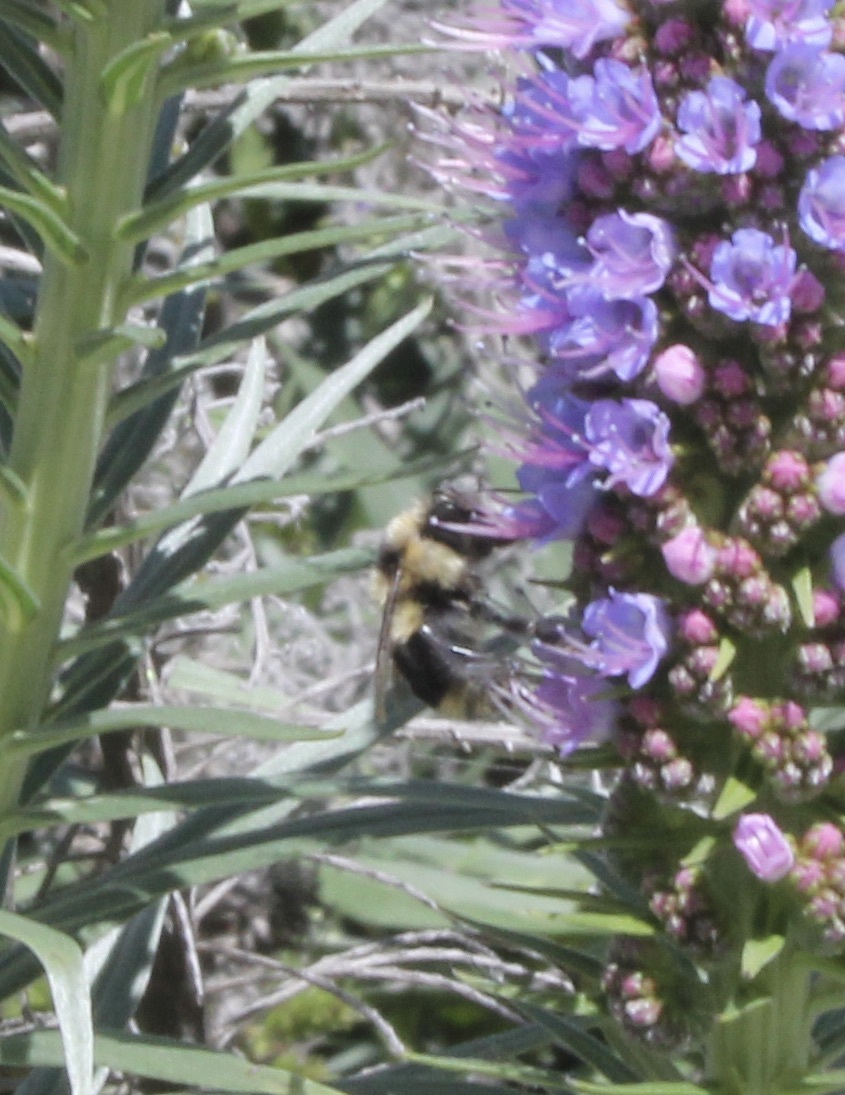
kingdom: Animalia
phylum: Arthropoda
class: Insecta
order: Hymenoptera
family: Apidae
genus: Bombus
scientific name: Bombus melanopygus
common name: Black tail bumble bee
